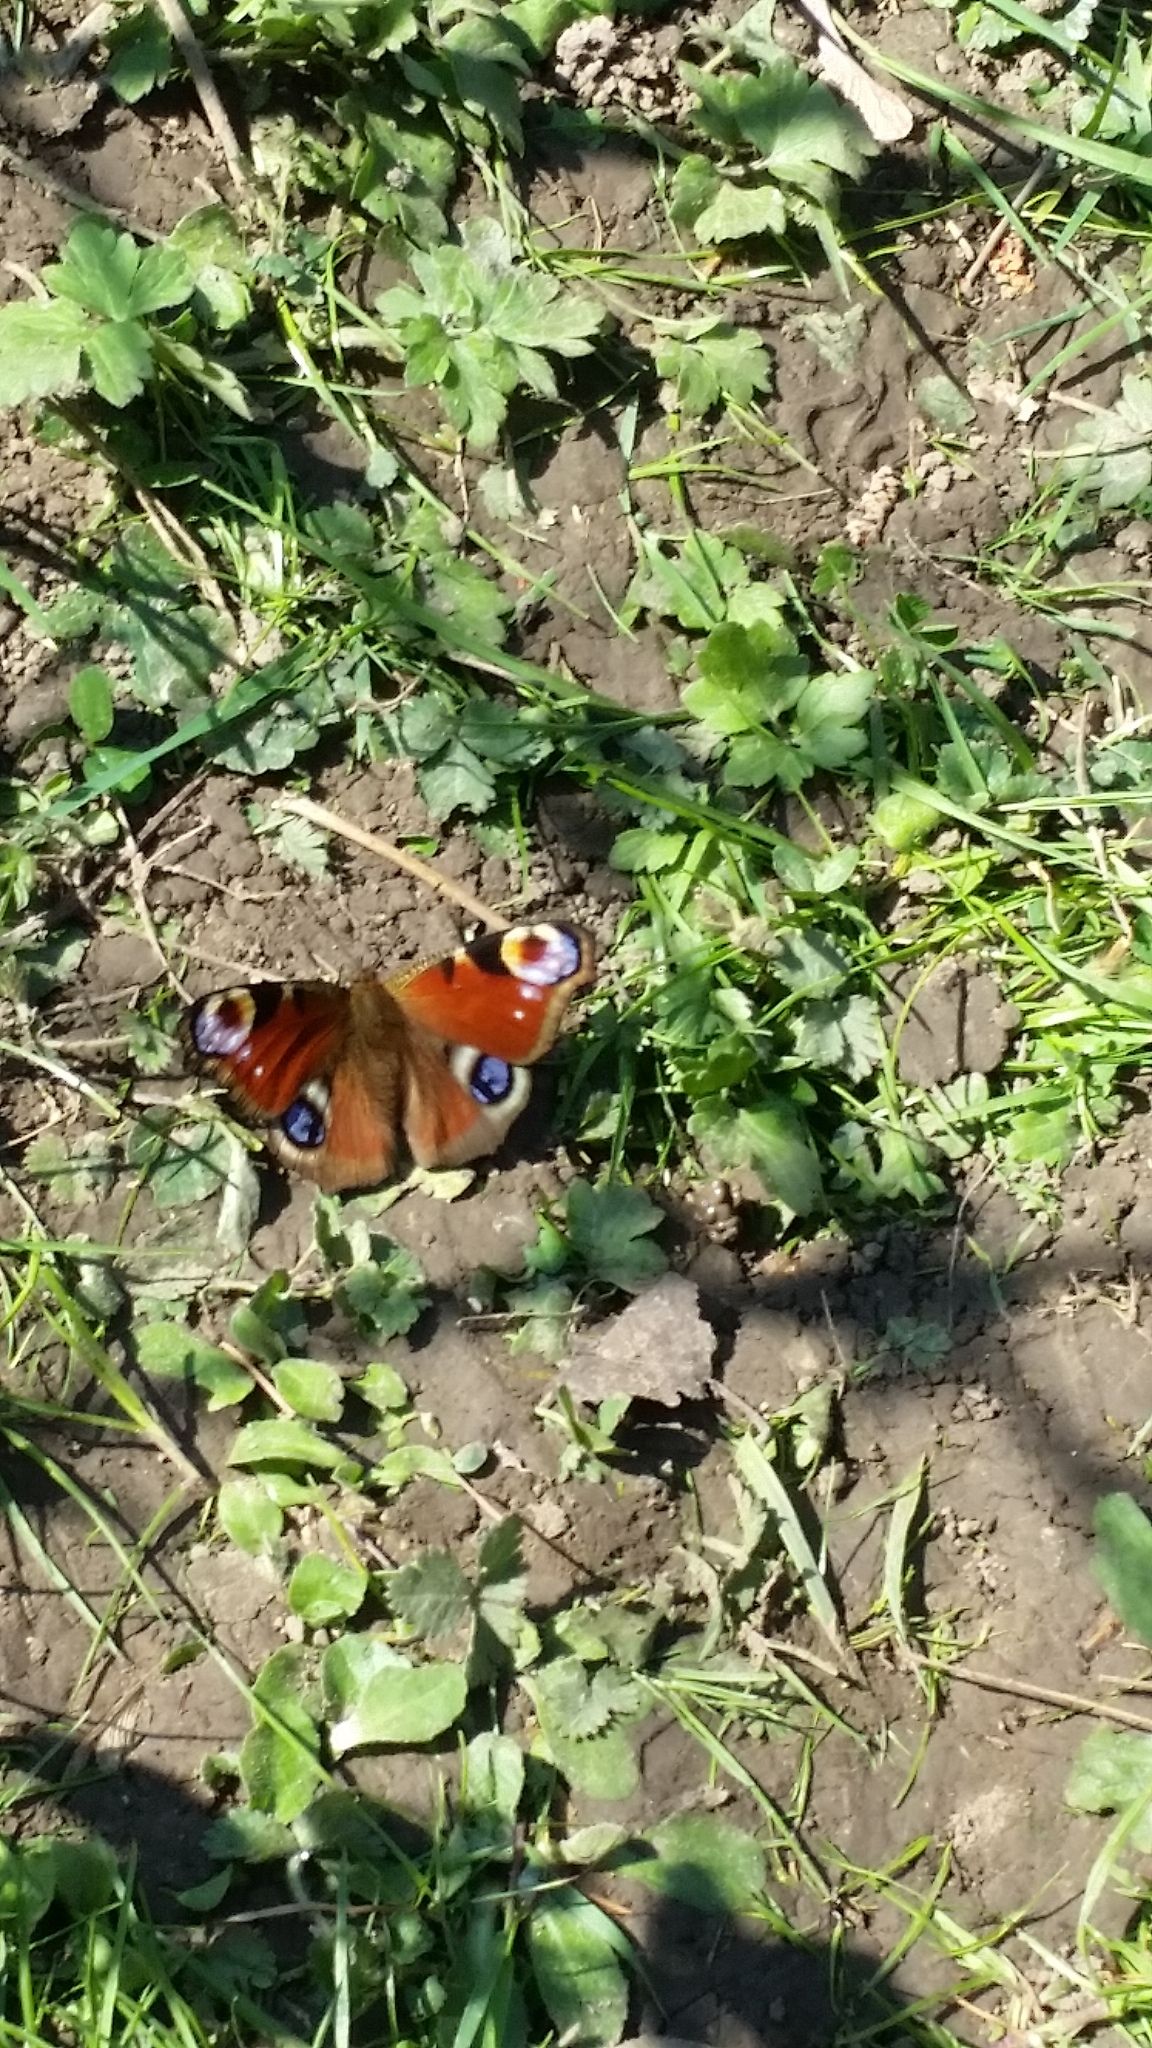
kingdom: Animalia
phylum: Arthropoda
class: Insecta
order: Lepidoptera
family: Nymphalidae
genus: Aglais
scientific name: Aglais io
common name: Peacock
